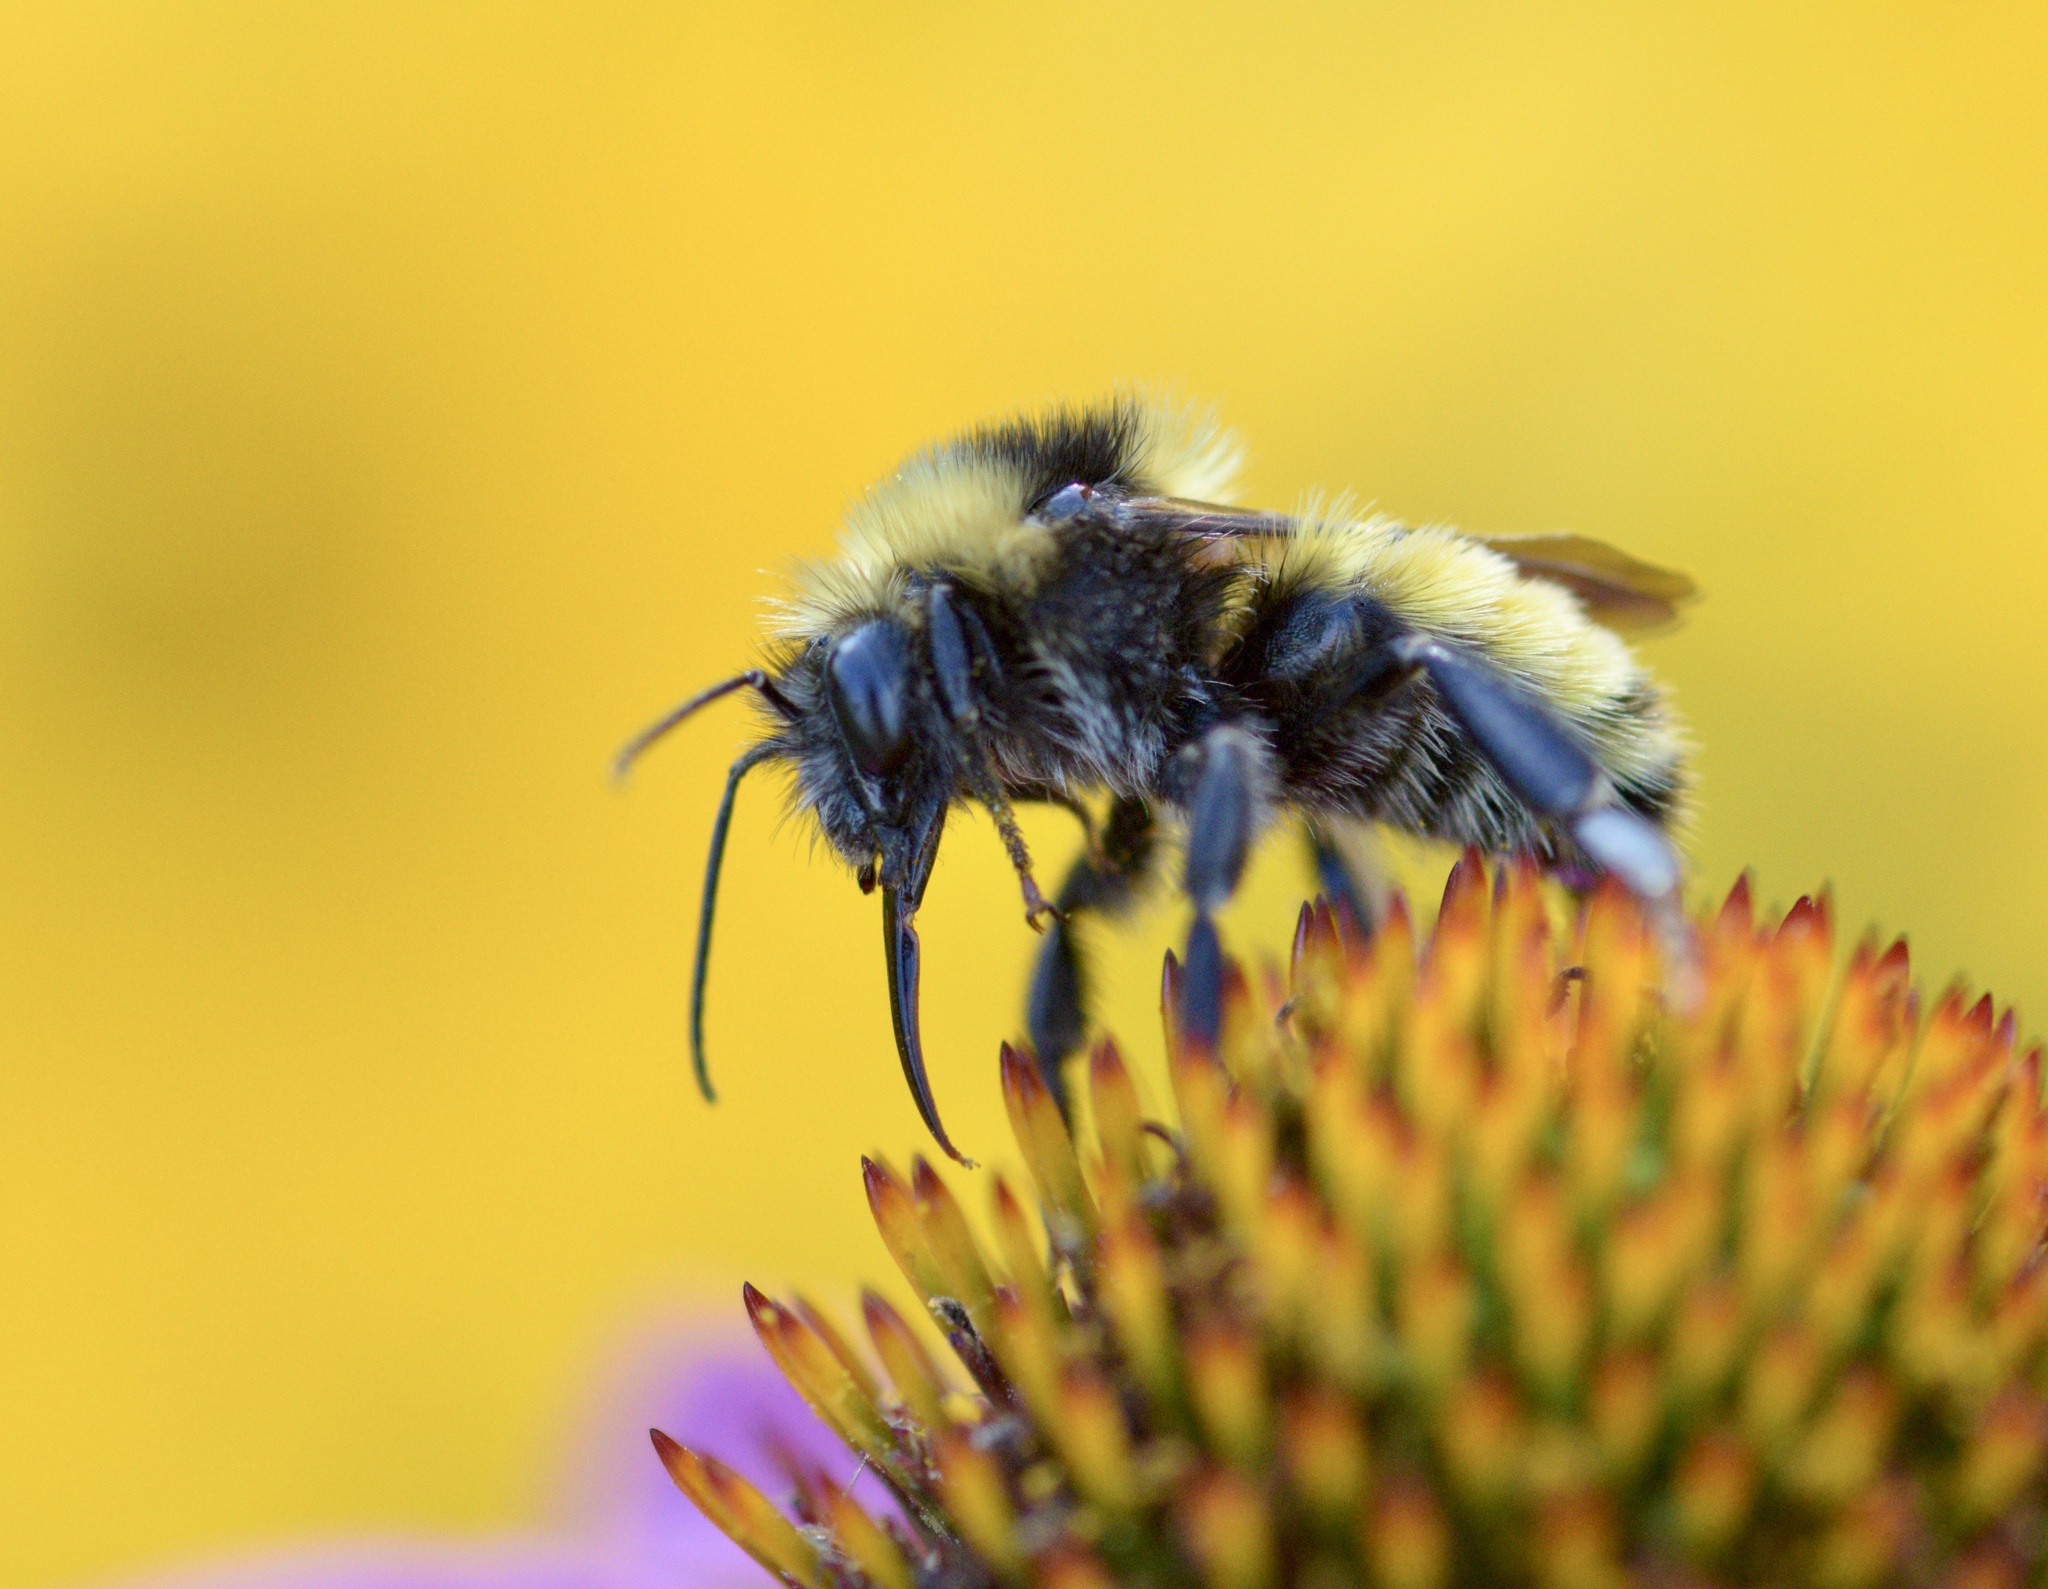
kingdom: Animalia
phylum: Arthropoda
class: Insecta
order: Hymenoptera
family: Apidae
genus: Bombus
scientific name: Bombus borealis
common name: Northern amber bumble bee
